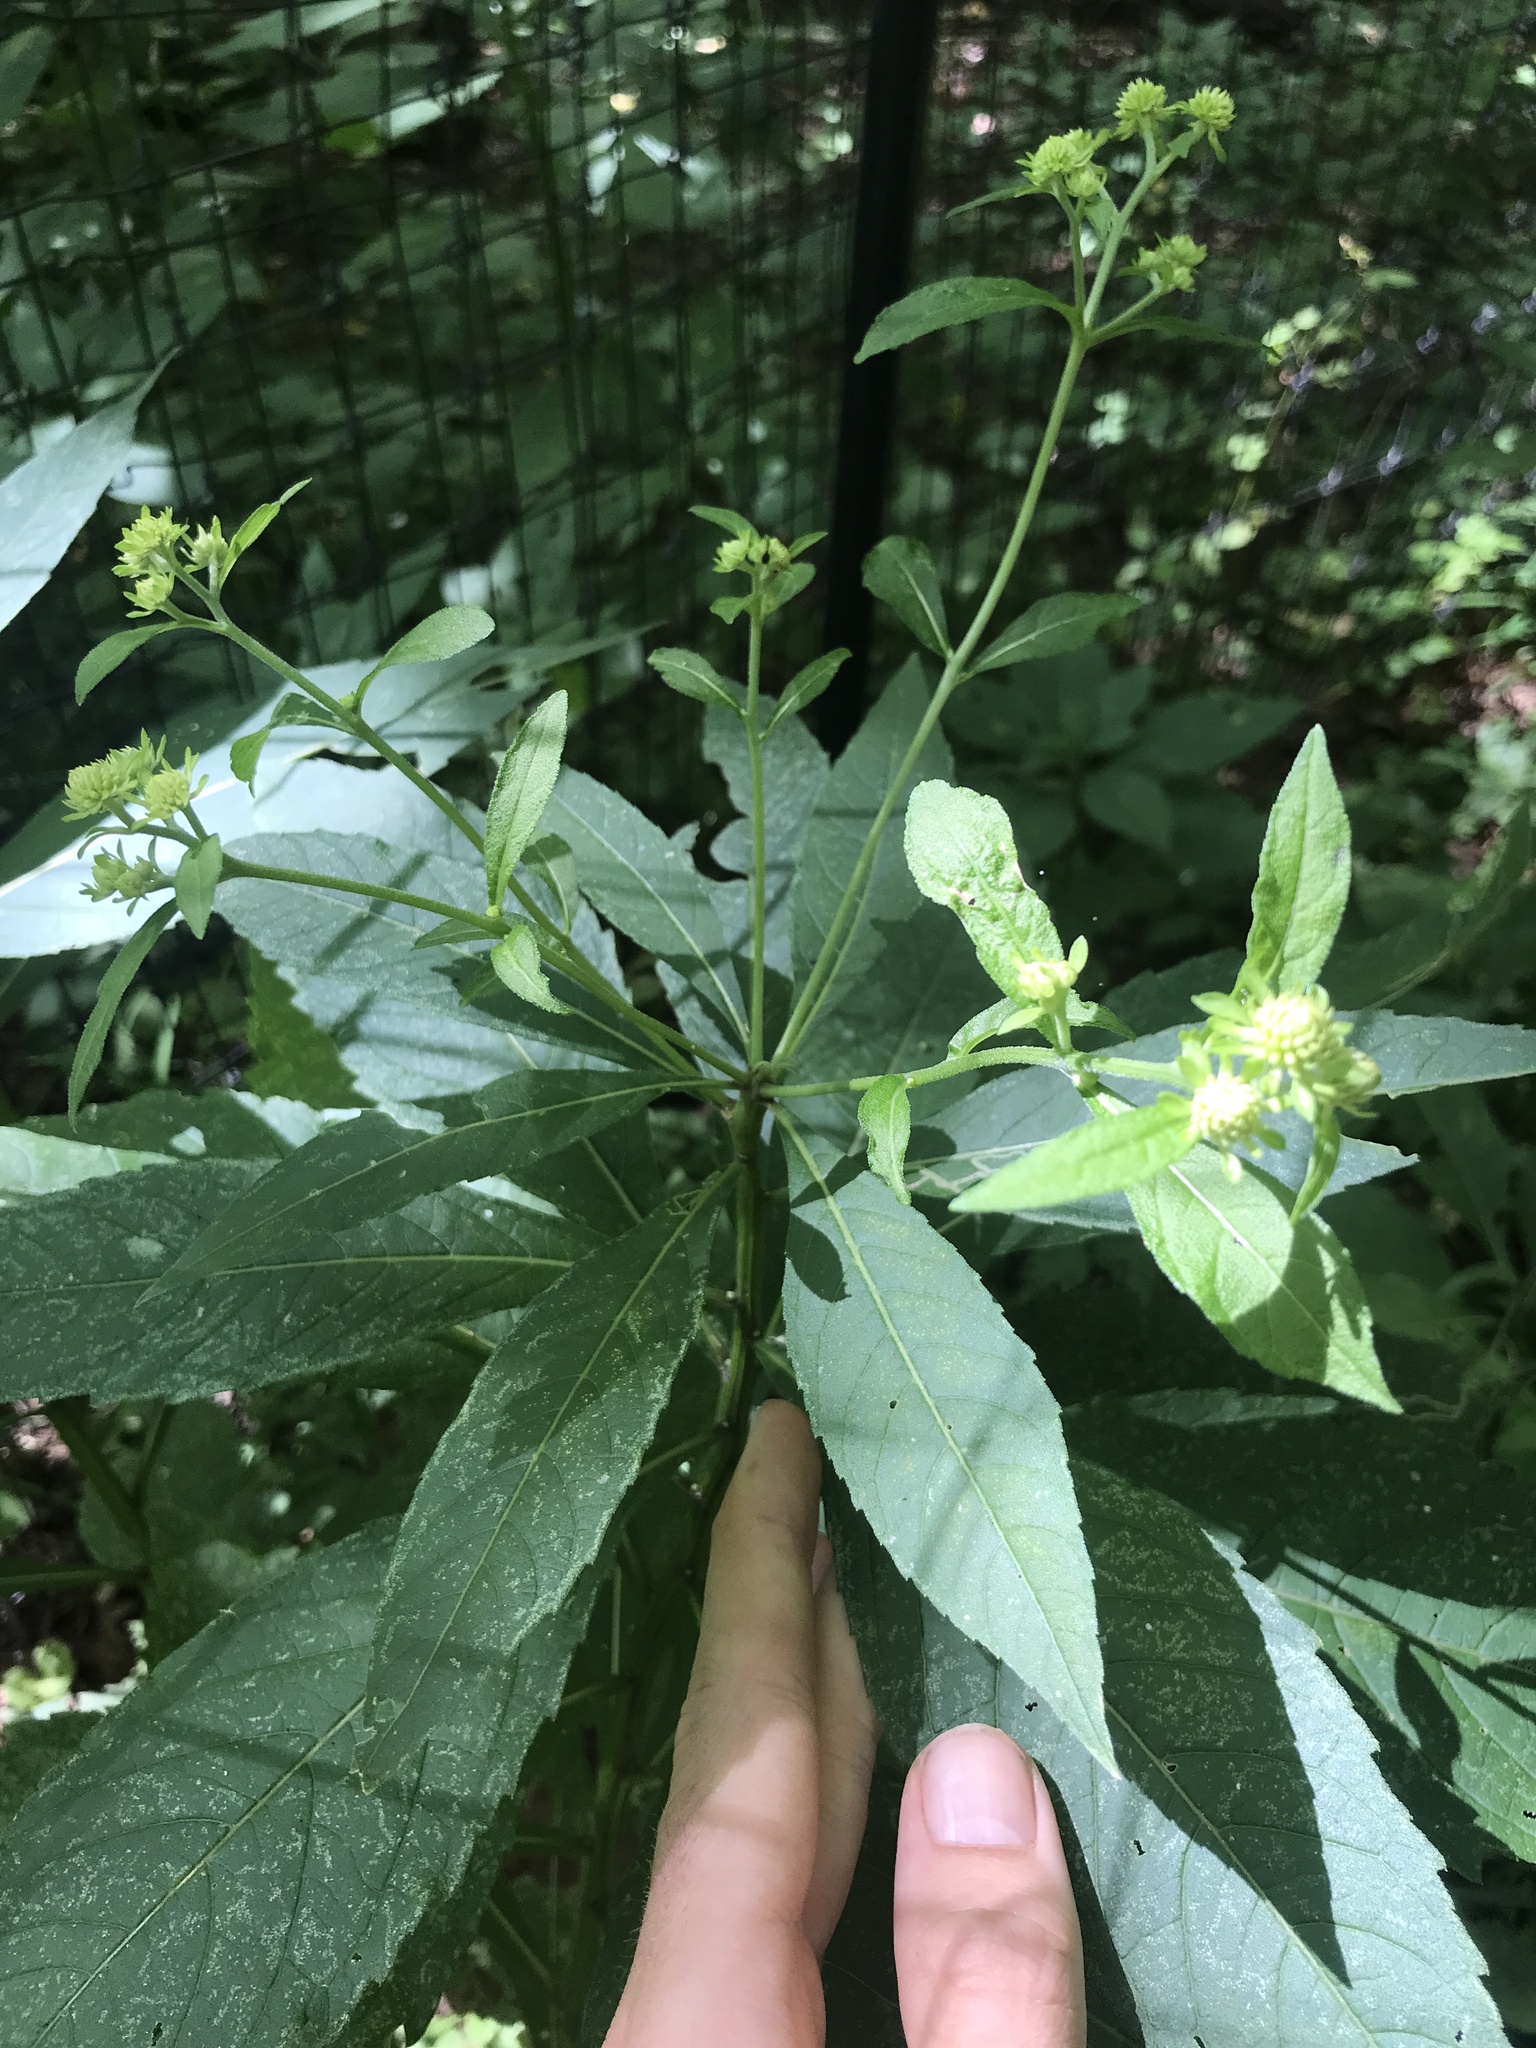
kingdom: Plantae
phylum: Tracheophyta
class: Magnoliopsida
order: Asterales
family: Asteraceae
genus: Verbesina
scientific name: Verbesina alternifolia
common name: Wingstem
